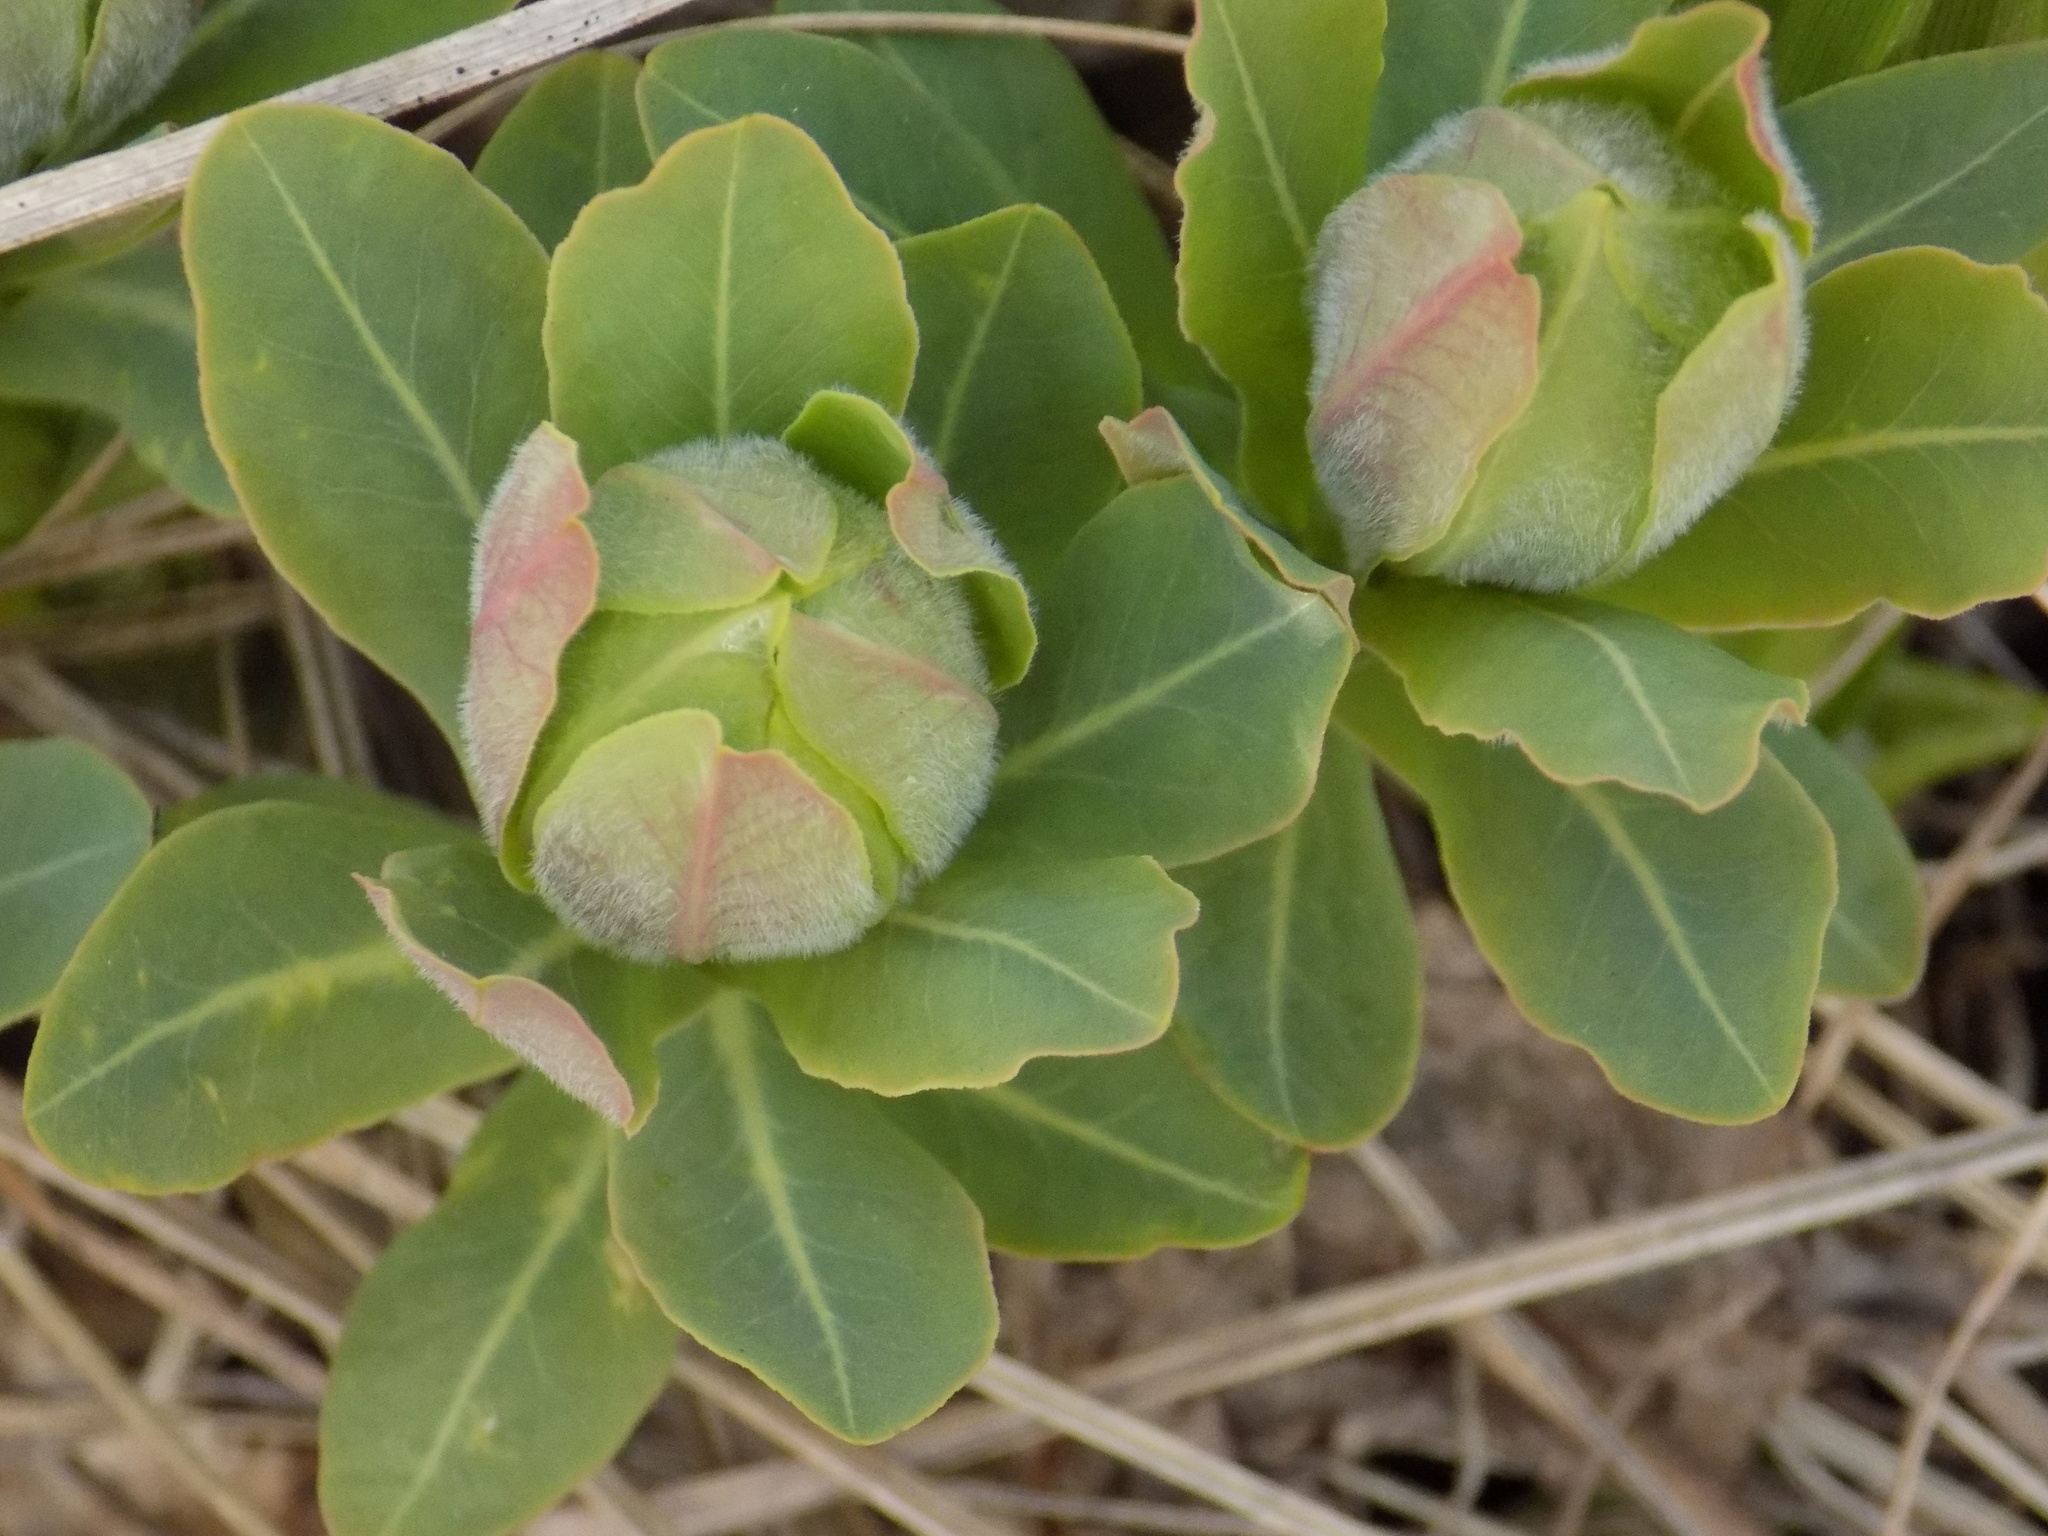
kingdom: Plantae
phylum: Tracheophyta
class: Magnoliopsida
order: Malpighiales
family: Euphorbiaceae
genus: Euphorbia
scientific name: Euphorbia pilosa
